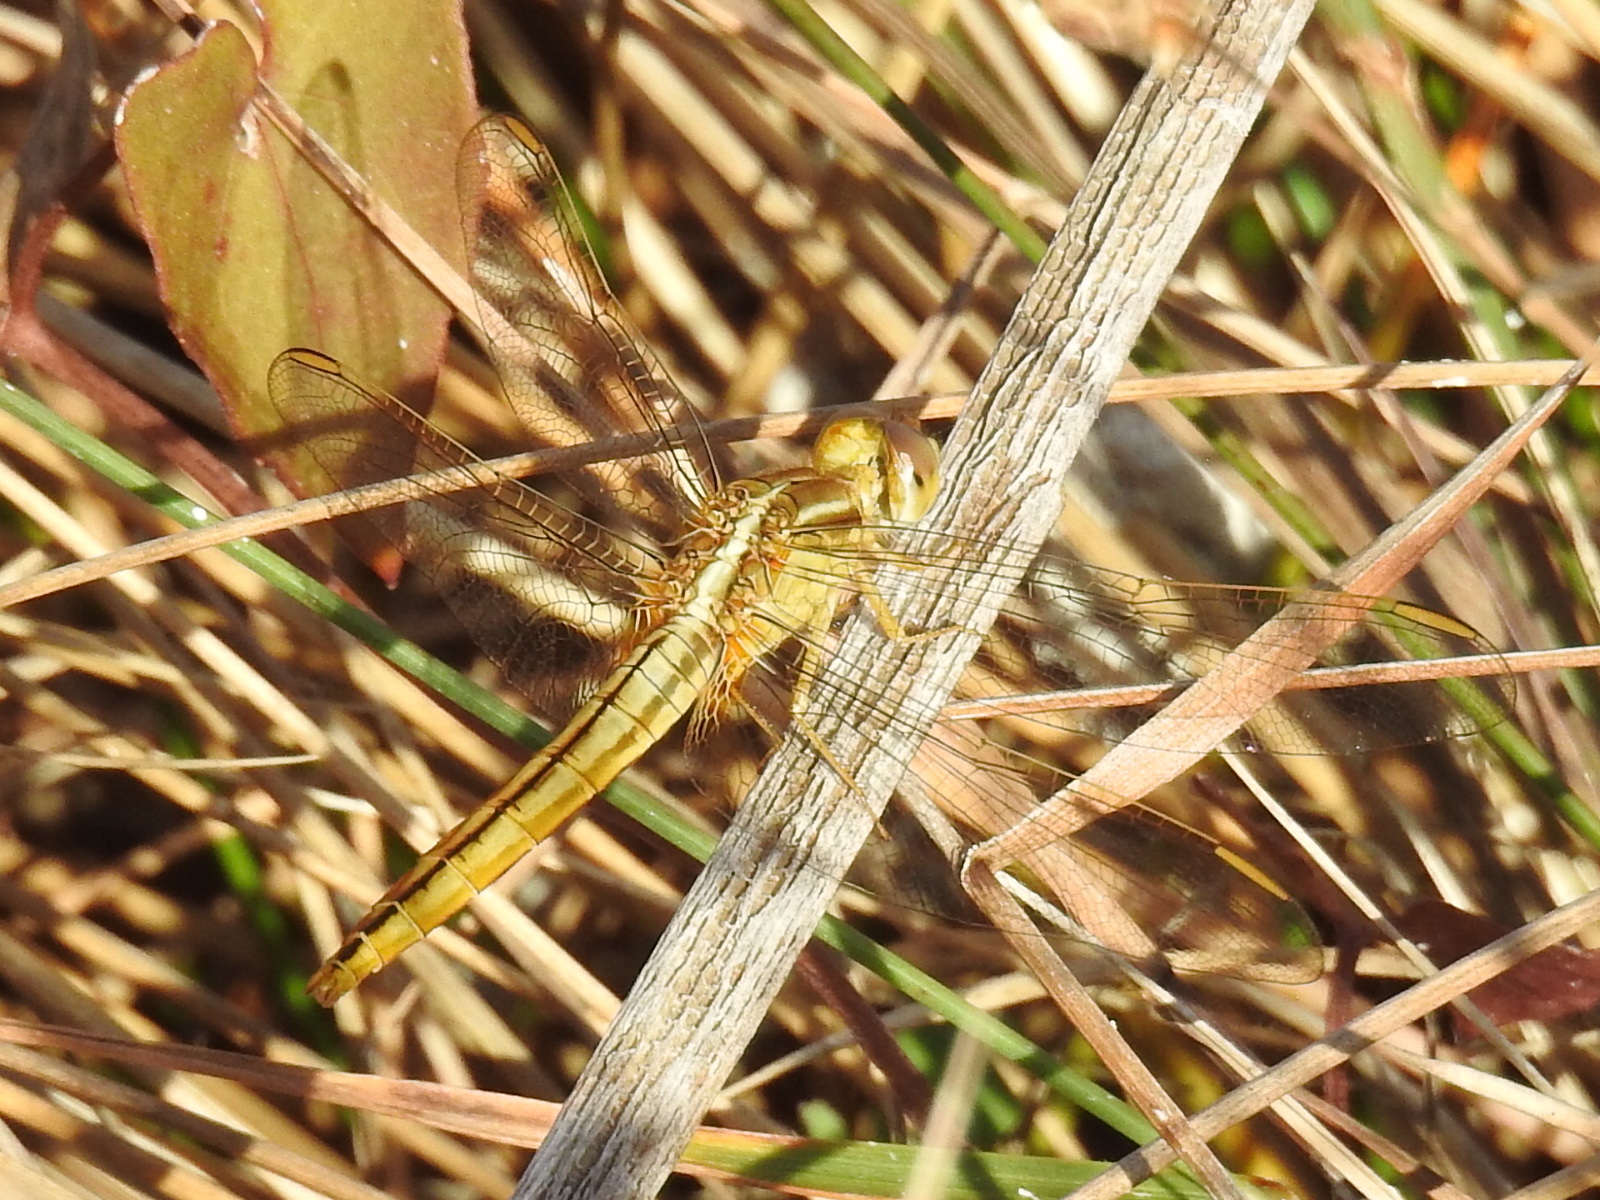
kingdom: Animalia
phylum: Arthropoda
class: Insecta
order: Odonata
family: Libellulidae
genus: Crocothemis
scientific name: Crocothemis servilia
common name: Scarlet skimmer
